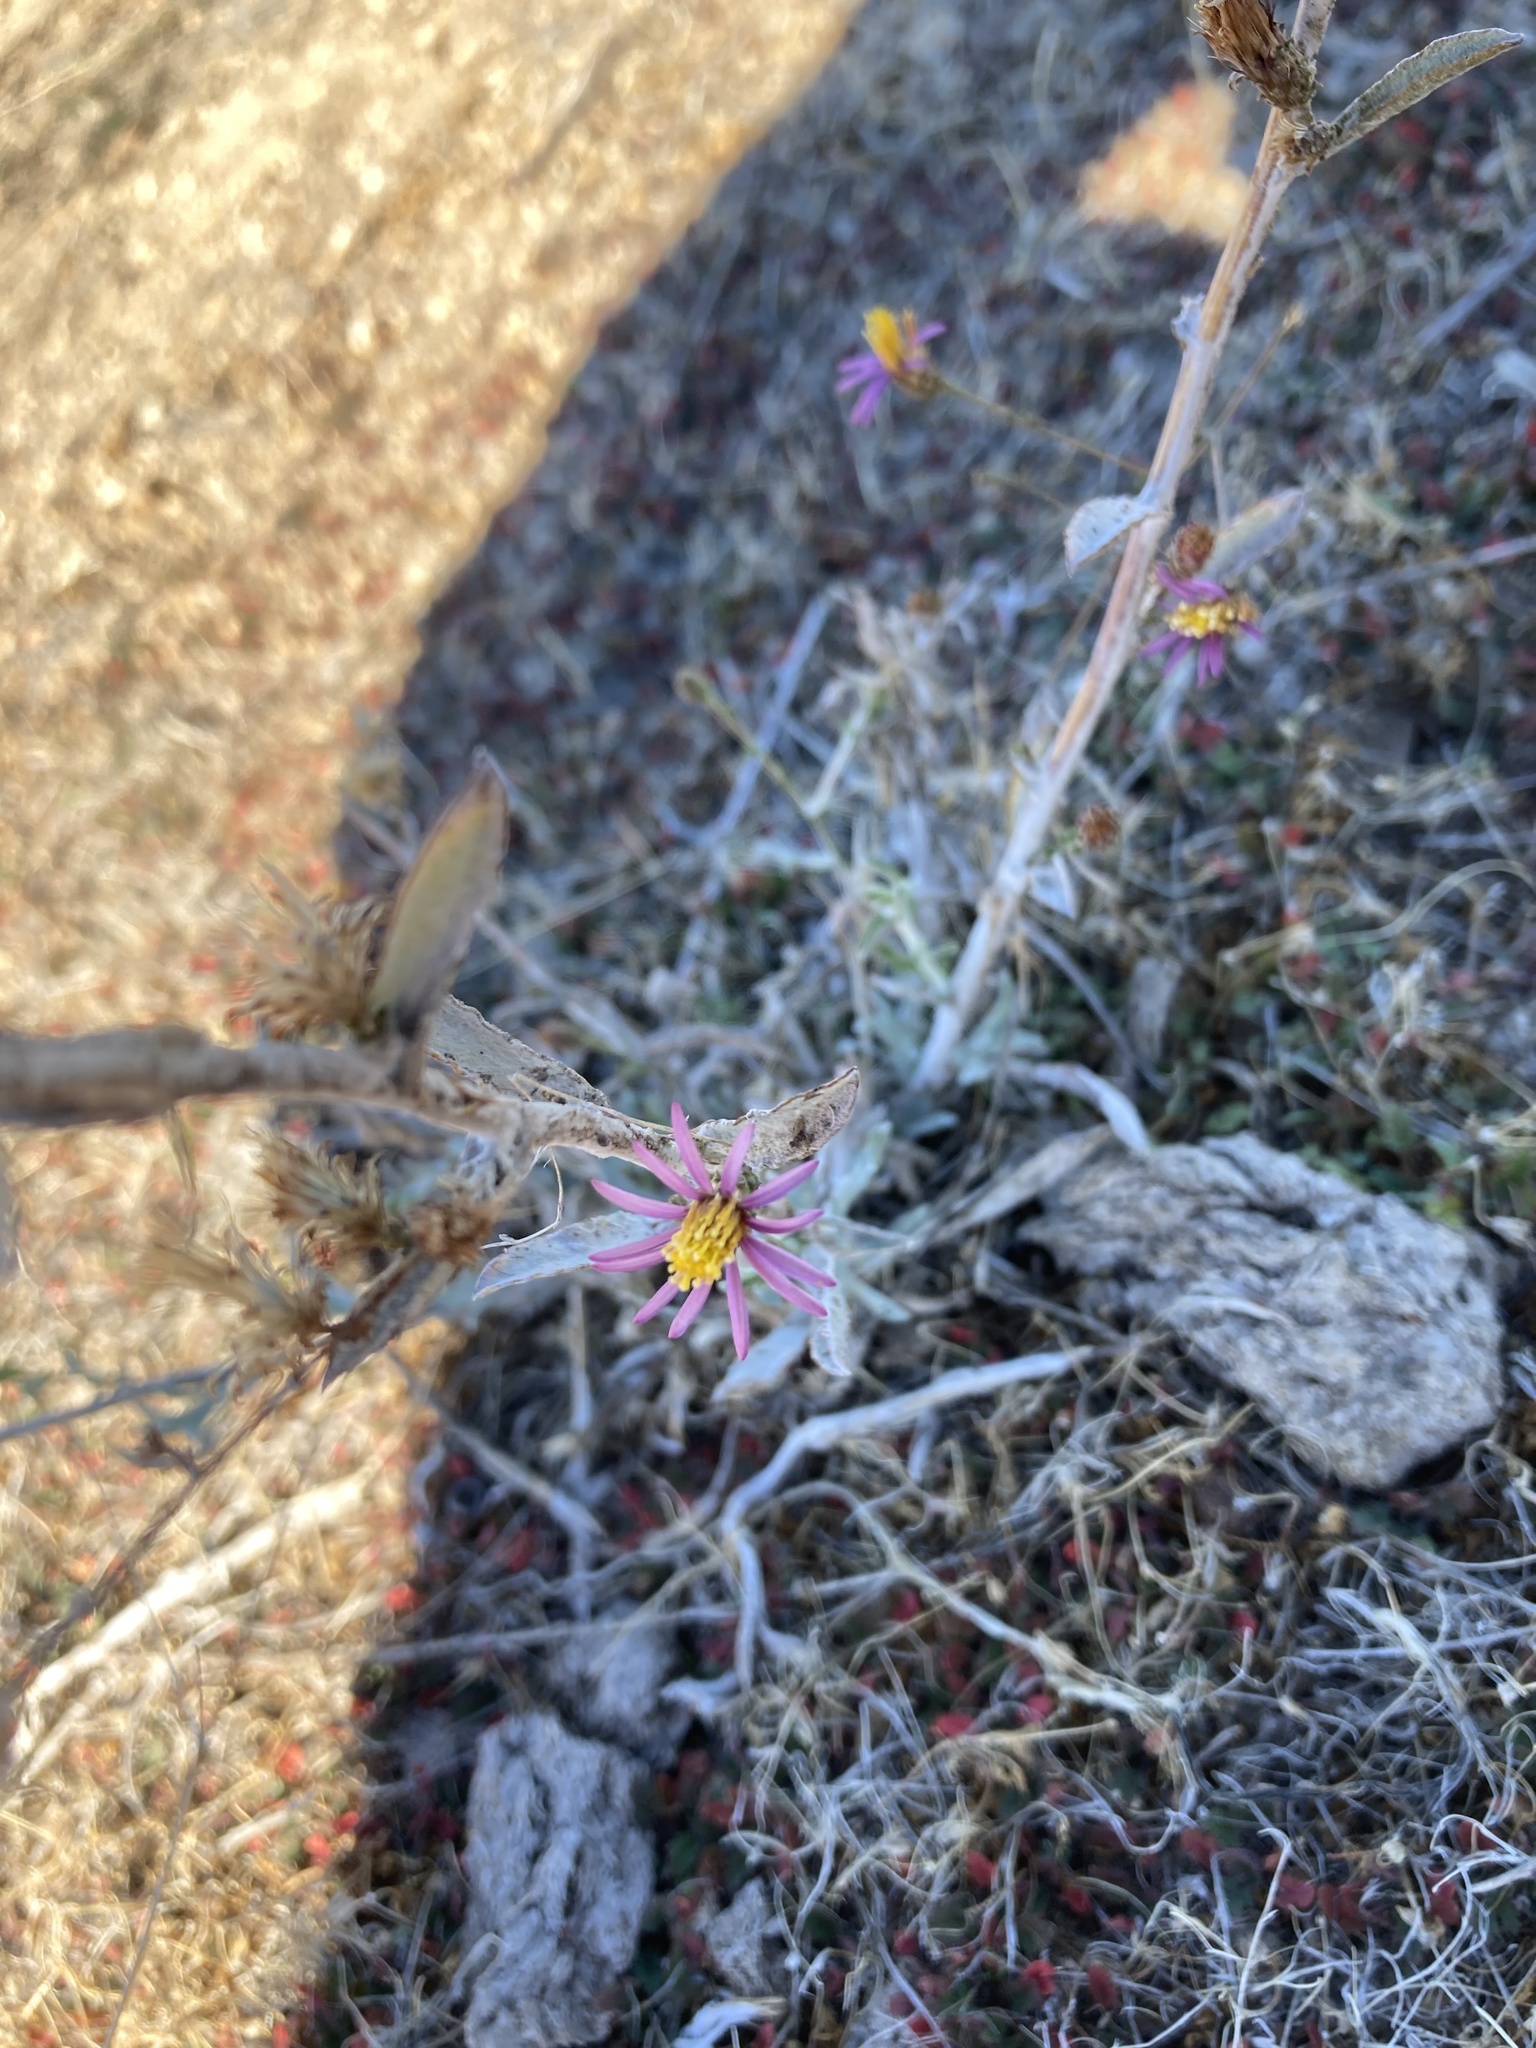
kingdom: Plantae
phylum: Tracheophyta
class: Magnoliopsida
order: Asterales
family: Asteraceae
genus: Corethrogyne
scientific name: Corethrogyne filaginifolia
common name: Sand-aster
